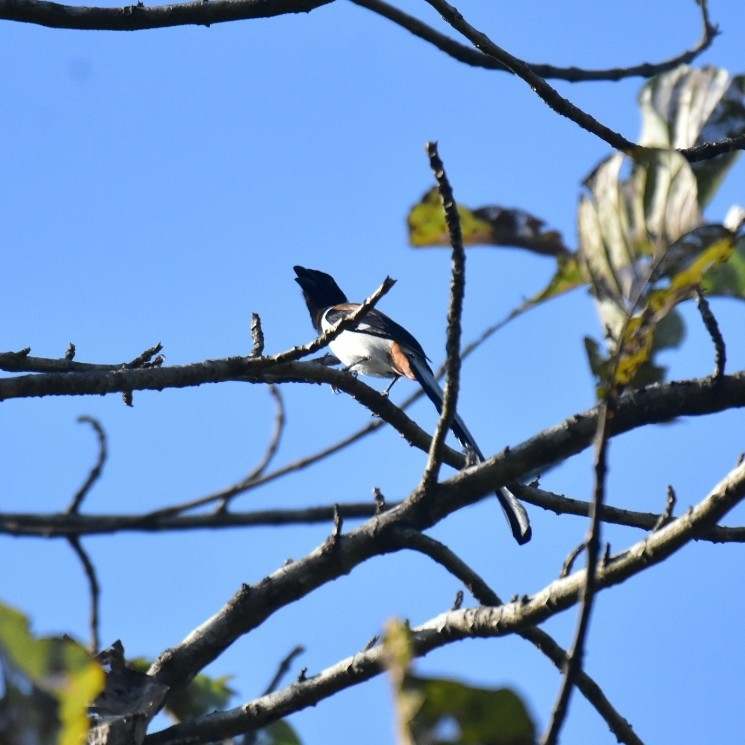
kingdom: Animalia
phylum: Chordata
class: Aves
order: Passeriformes
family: Corvidae
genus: Dendrocitta
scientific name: Dendrocitta leucogastra
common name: White-bellied treepie
